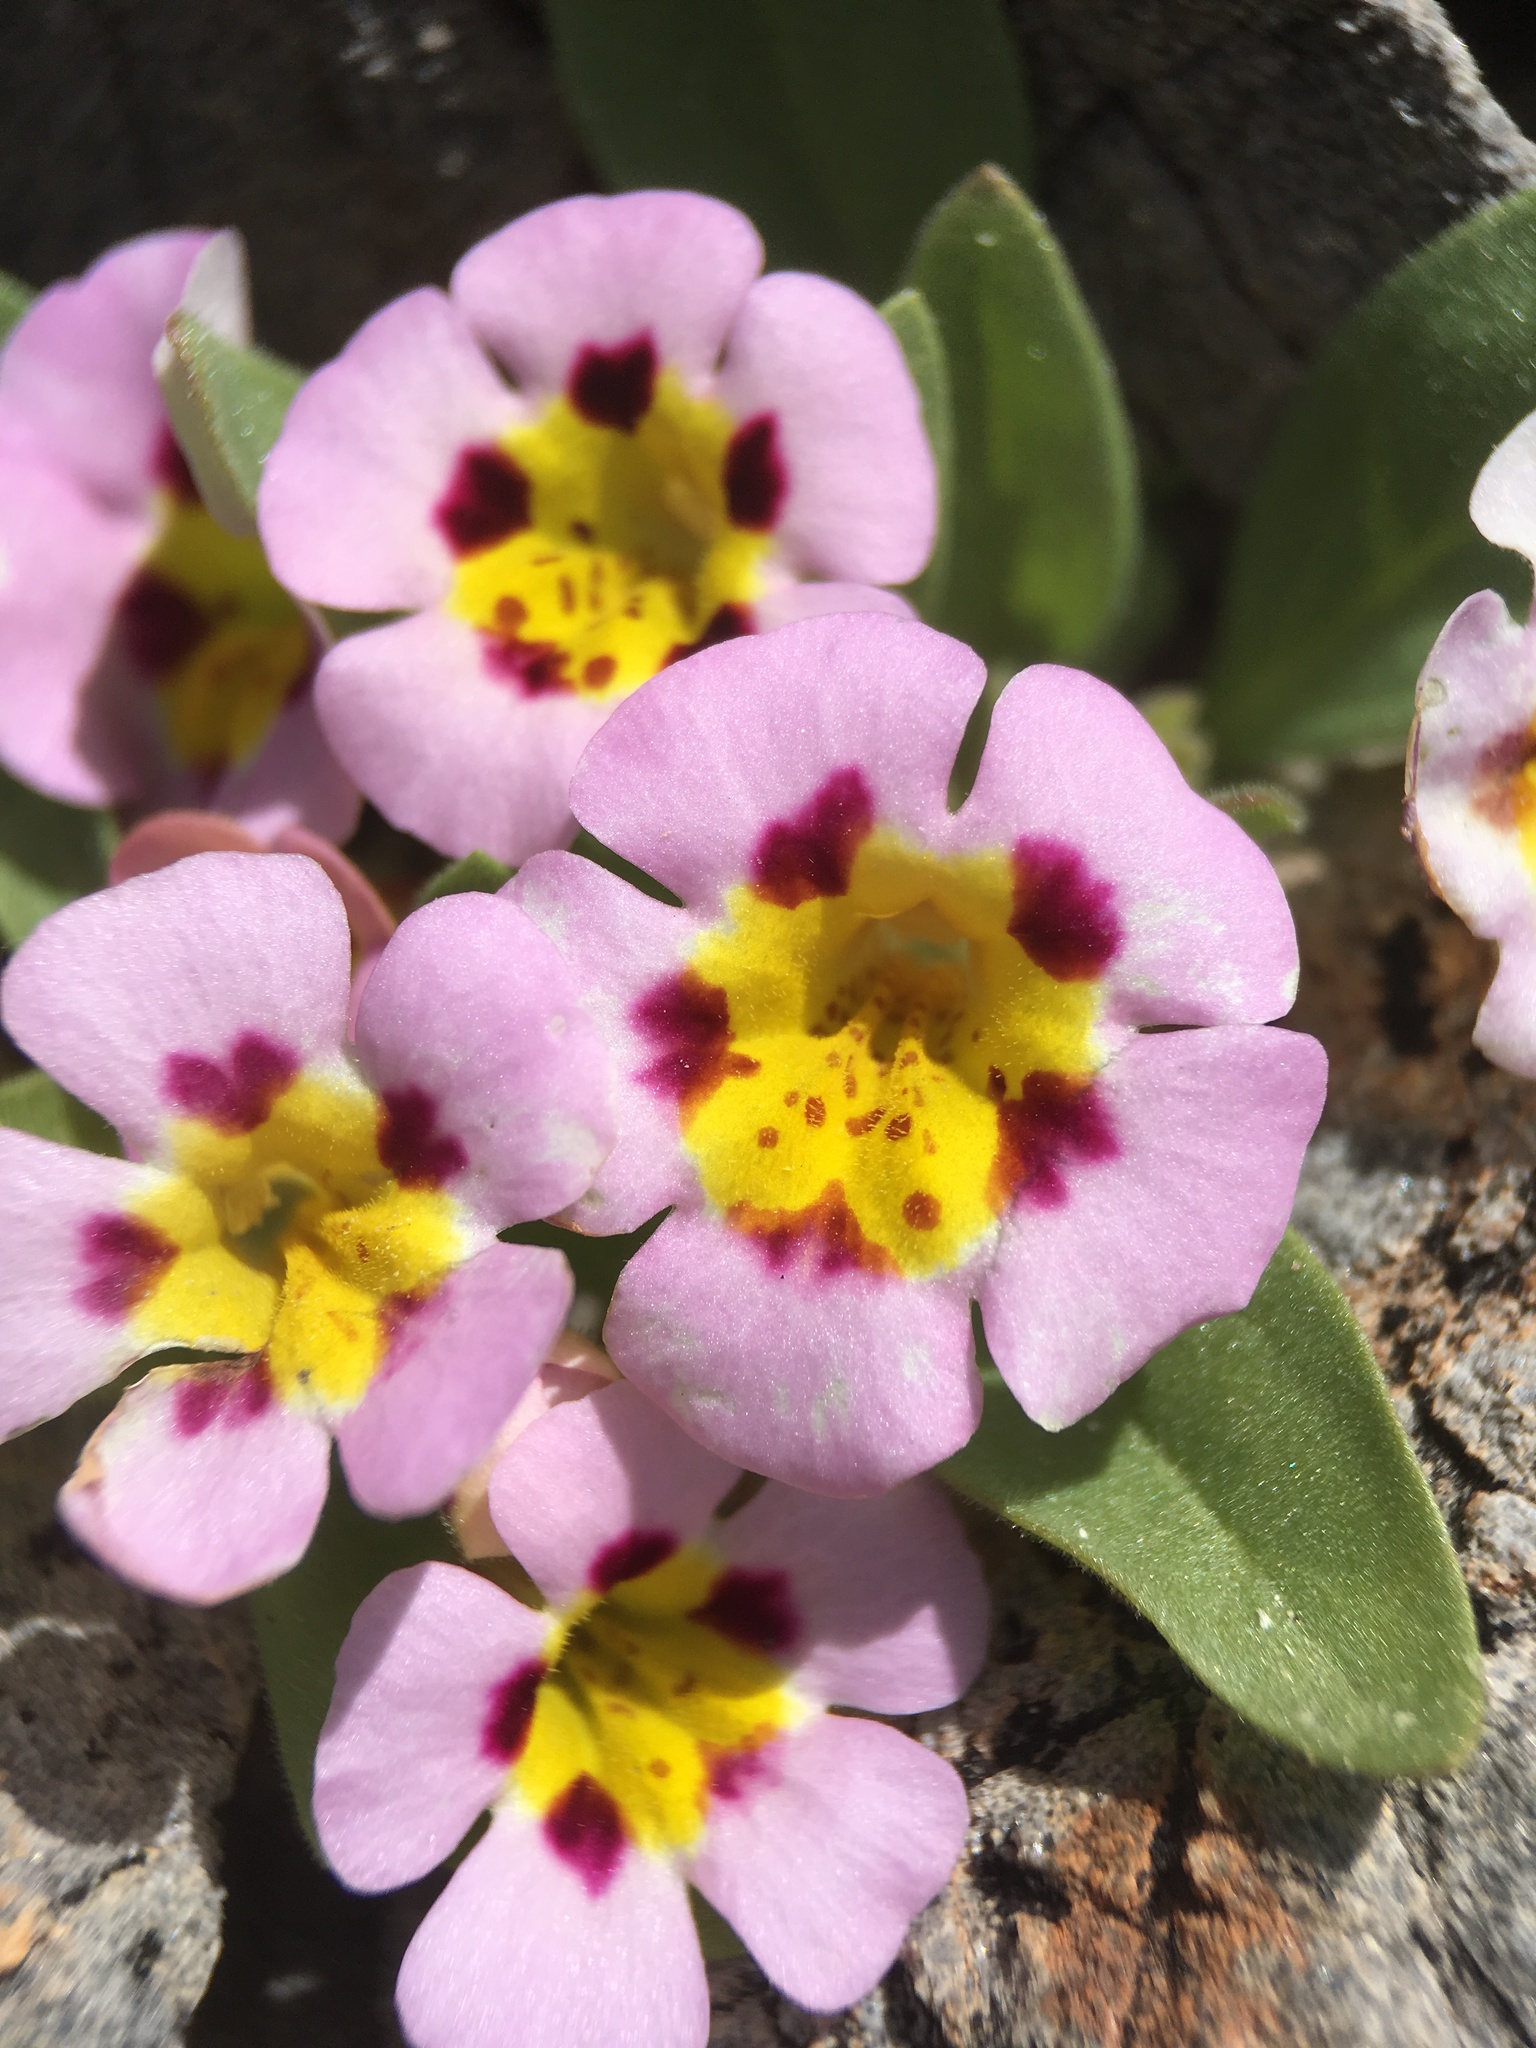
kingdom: Plantae
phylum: Tracheophyta
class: Magnoliopsida
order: Lamiales
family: Phrymaceae
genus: Diplacus
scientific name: Diplacus rupicola
